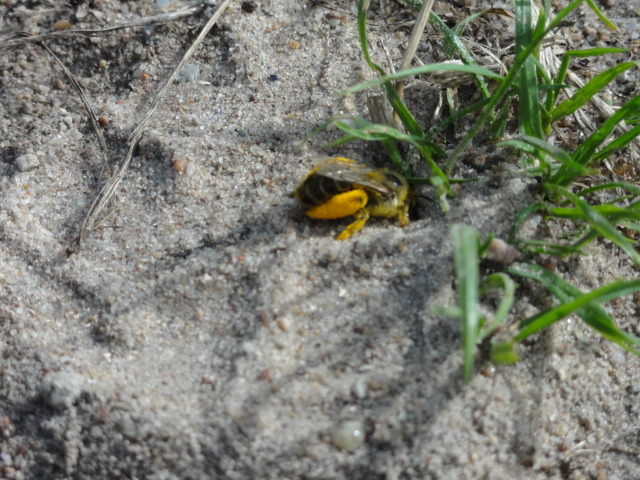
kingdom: Animalia
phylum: Arthropoda
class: Insecta
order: Hymenoptera
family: Melittidae
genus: Dasypoda
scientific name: Dasypoda hirtipes
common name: Pantaloon bee
